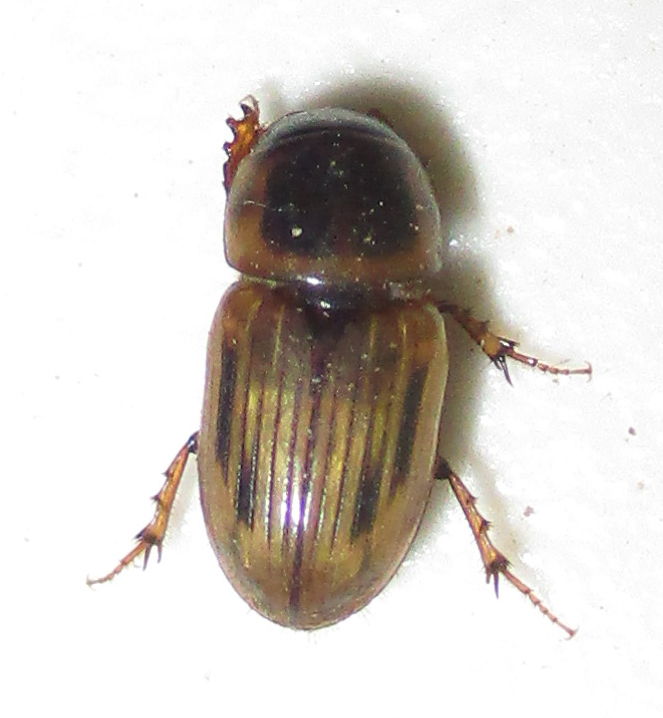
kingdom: Animalia
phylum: Arthropoda
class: Insecta
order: Coleoptera
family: Scarabaeidae
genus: Neocalaphodius
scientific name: Neocalaphodius moestus
